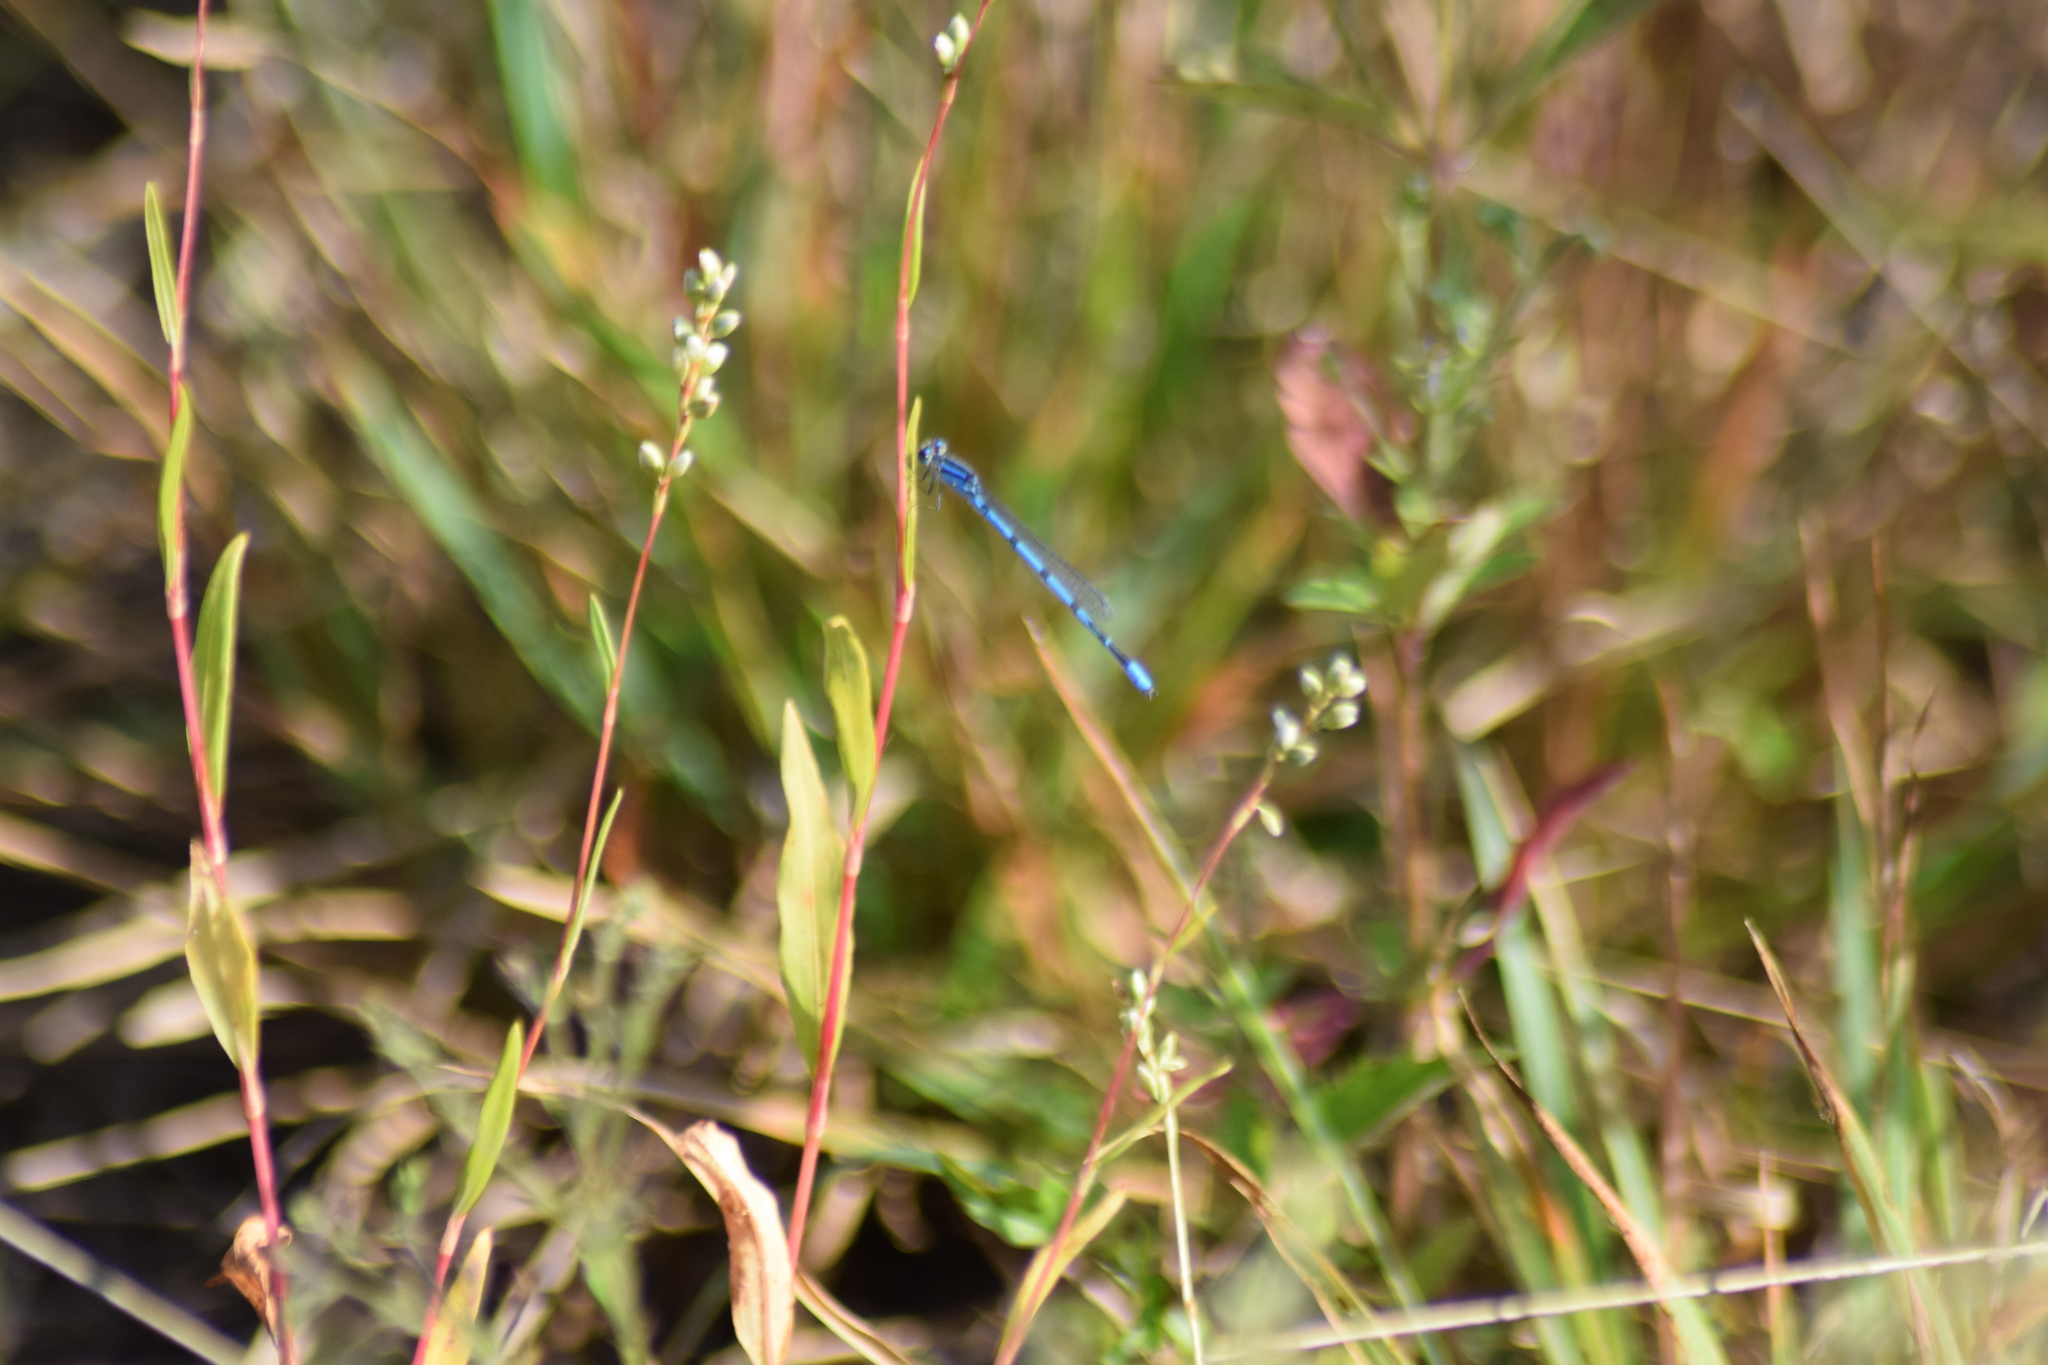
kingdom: Animalia
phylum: Arthropoda
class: Insecta
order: Odonata
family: Coenagrionidae
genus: Enallagma
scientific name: Enallagma civile
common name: Damselfly
